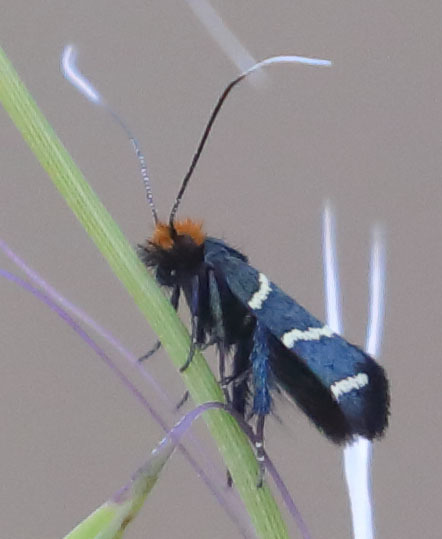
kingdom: Animalia
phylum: Arthropoda
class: Insecta
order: Lepidoptera
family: Adelidae
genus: Adela
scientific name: Adela trigrapha
